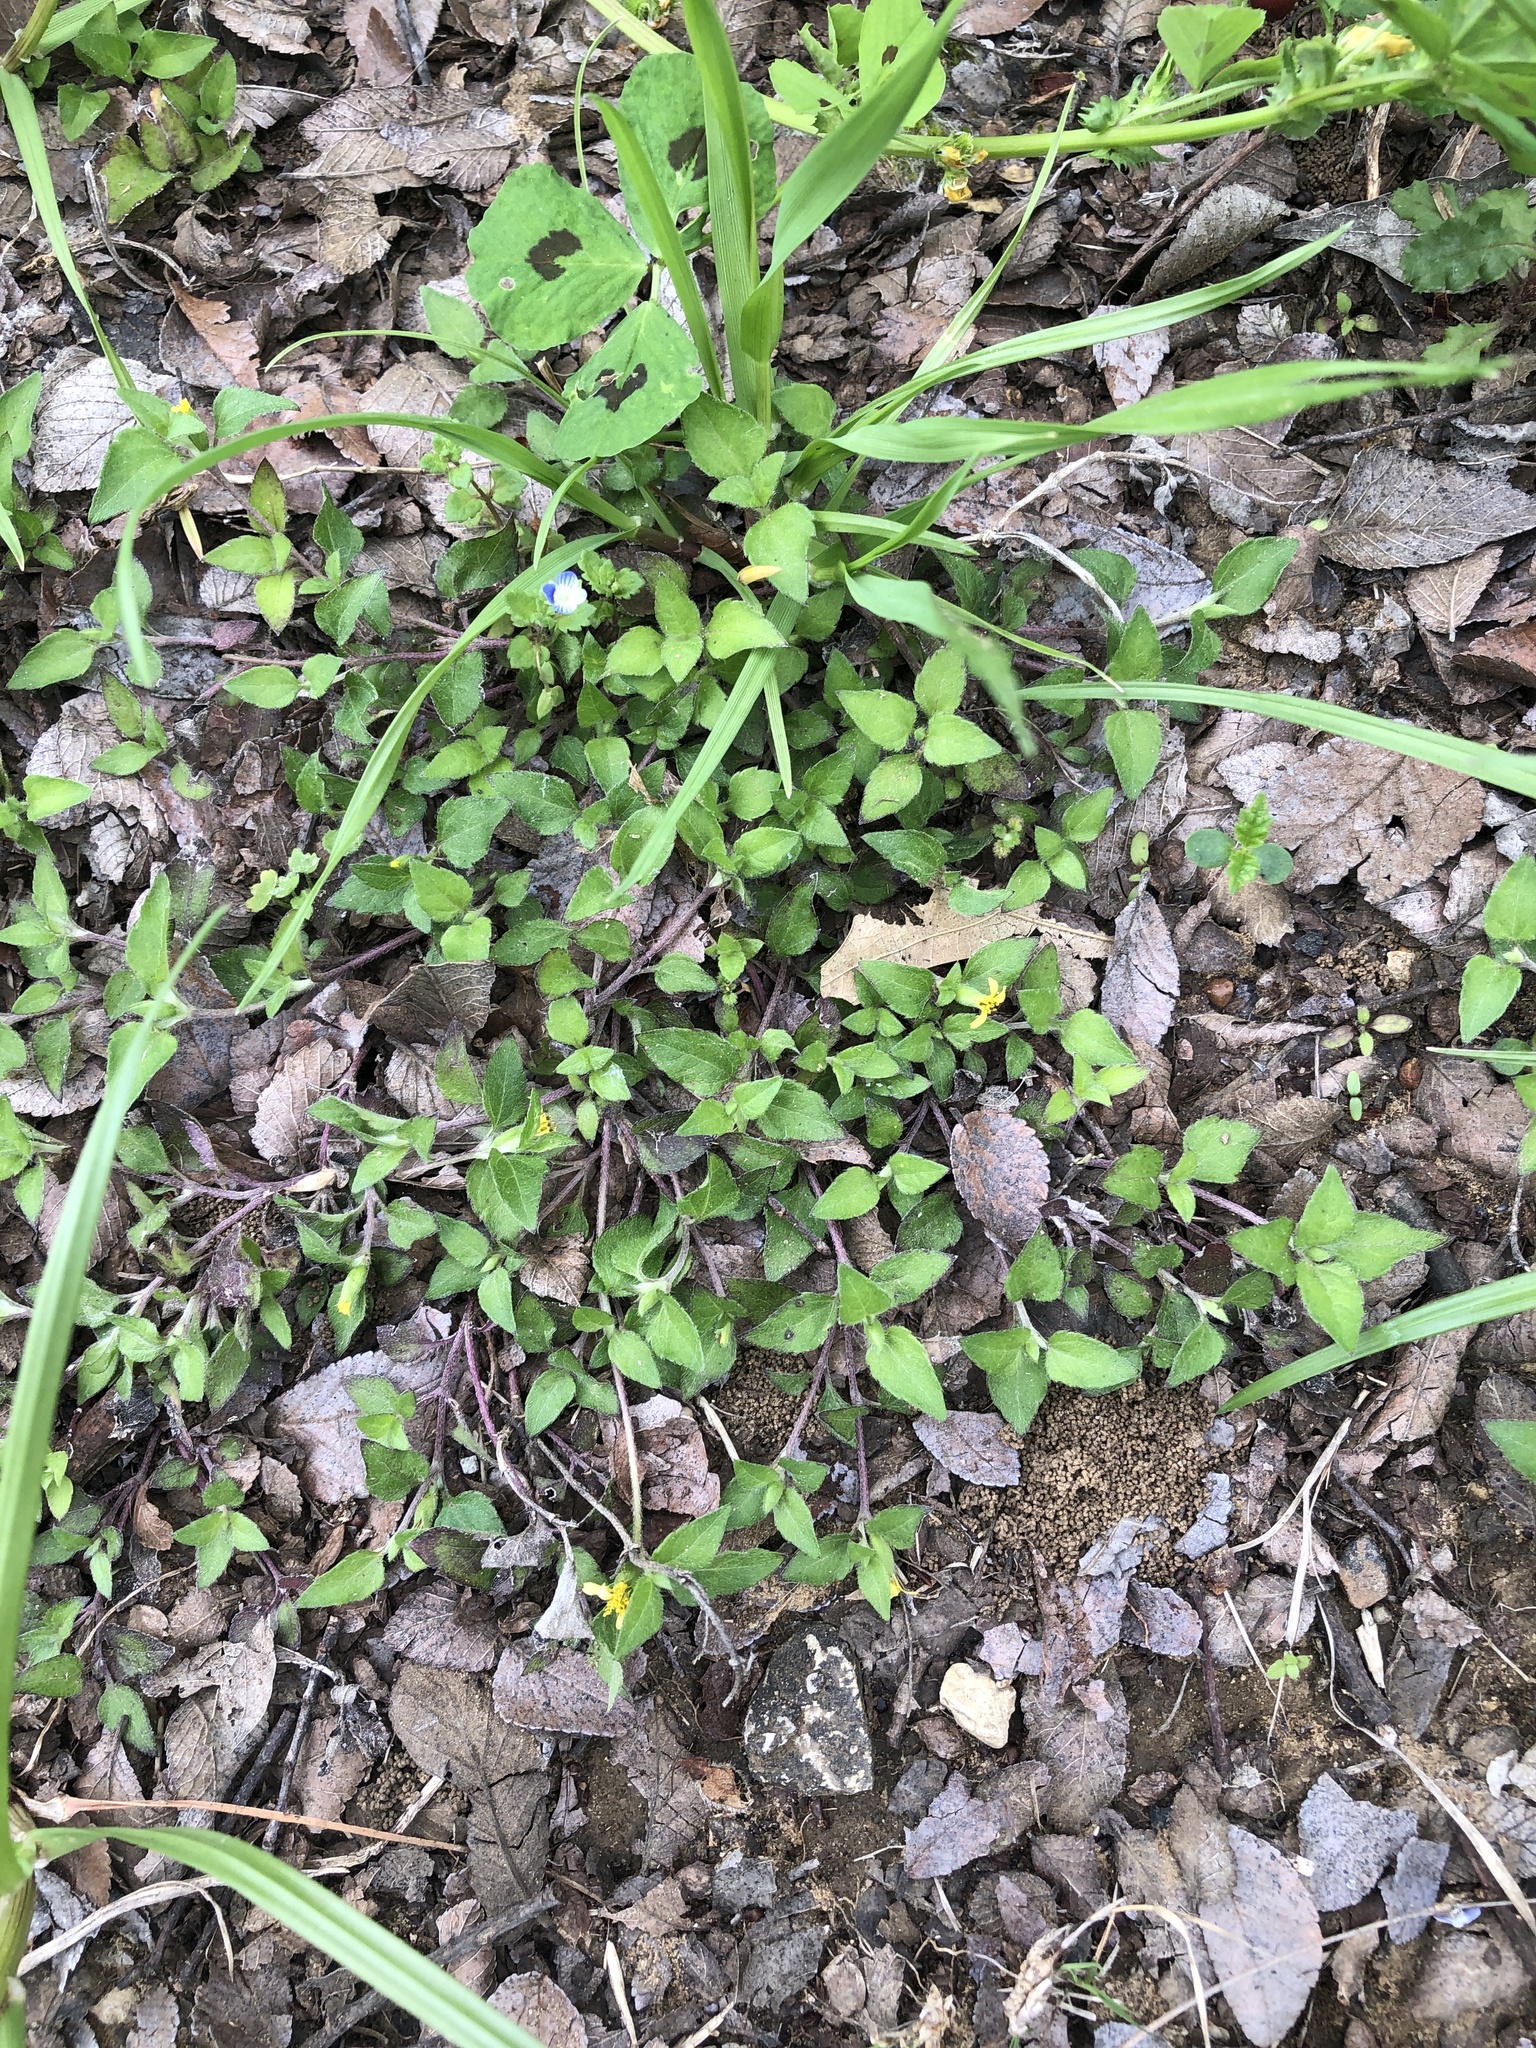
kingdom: Plantae
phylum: Tracheophyta
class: Magnoliopsida
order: Asterales
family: Asteraceae
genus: Calyptocarpus
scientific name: Calyptocarpus vialis
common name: Straggler daisy
